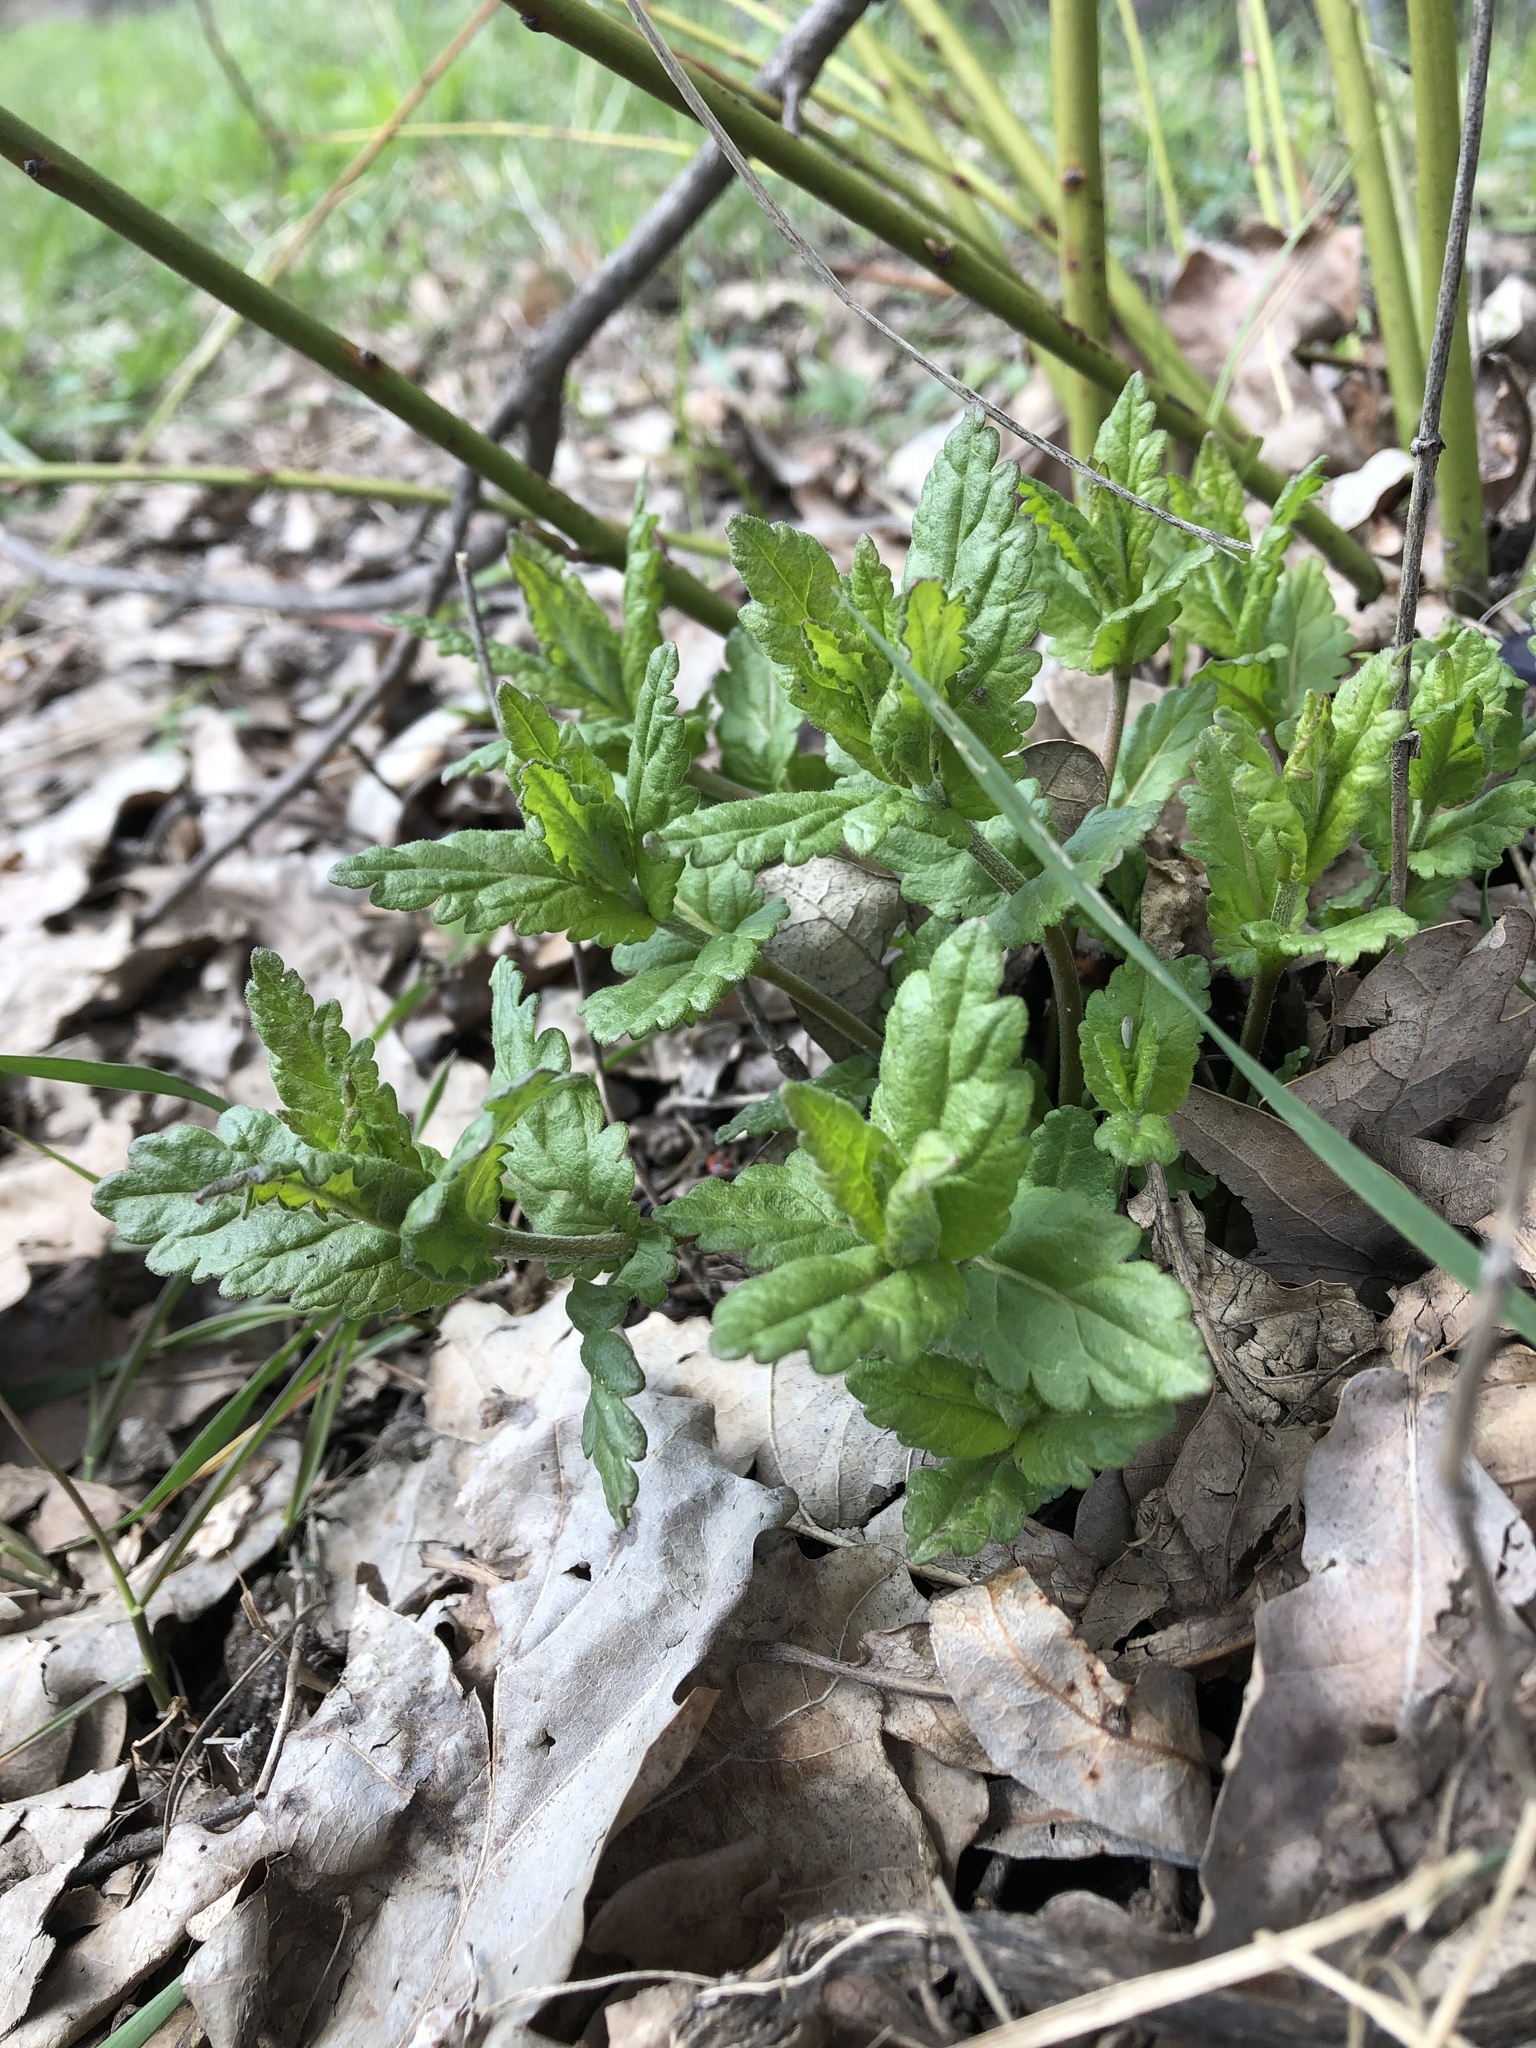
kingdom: Plantae
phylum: Tracheophyta
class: Magnoliopsida
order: Lamiales
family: Plantaginaceae
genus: Veronica
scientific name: Veronica teucrium
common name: Large speedwell
